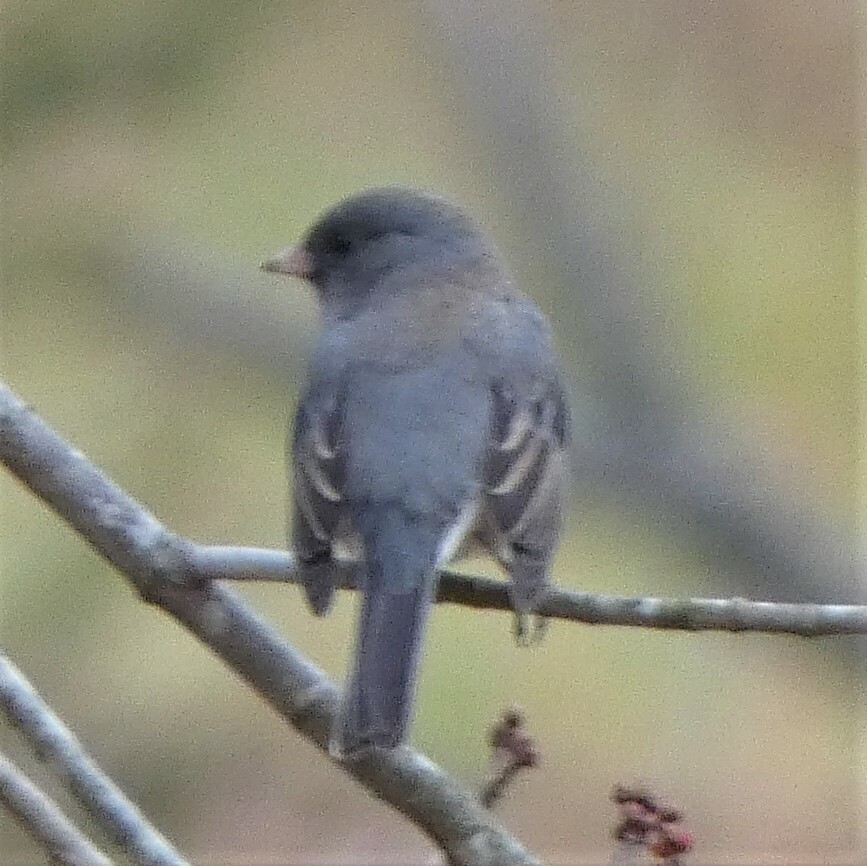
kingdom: Animalia
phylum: Chordata
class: Aves
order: Passeriformes
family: Passerellidae
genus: Junco
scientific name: Junco hyemalis
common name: Dark-eyed junco
